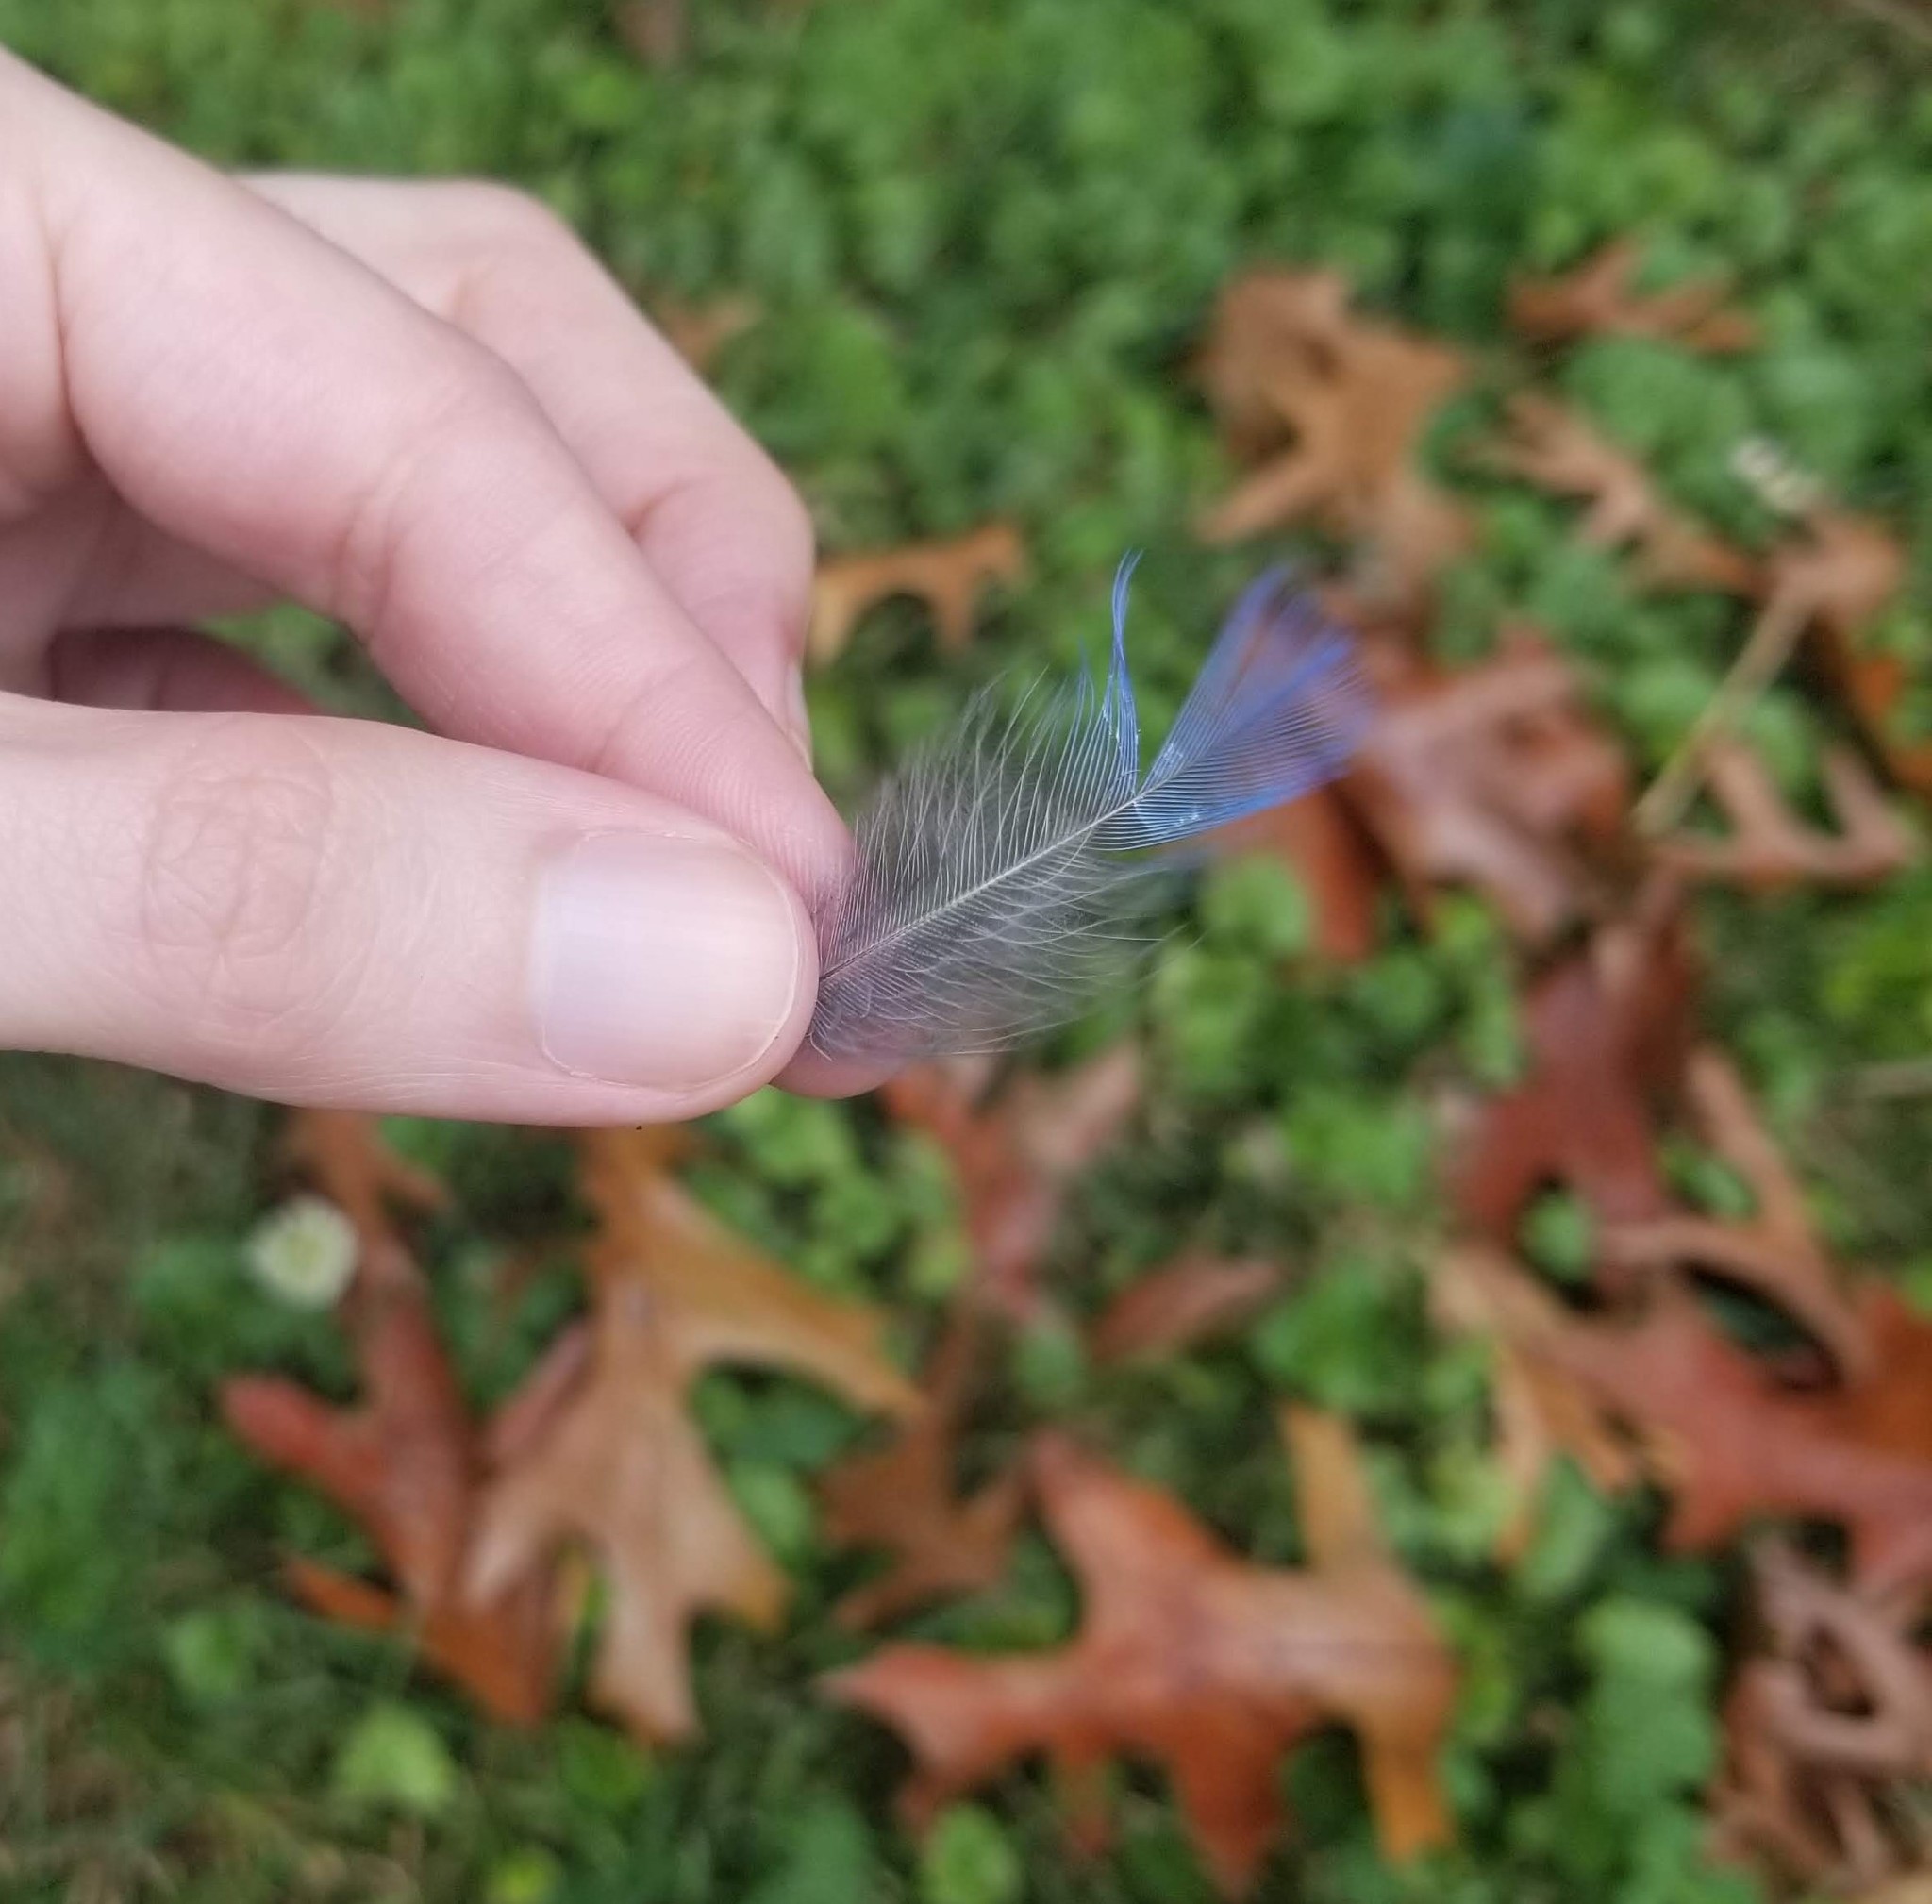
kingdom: Animalia
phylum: Chordata
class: Aves
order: Passeriformes
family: Corvidae
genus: Cyanocitta
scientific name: Cyanocitta cristata
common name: Blue jay
